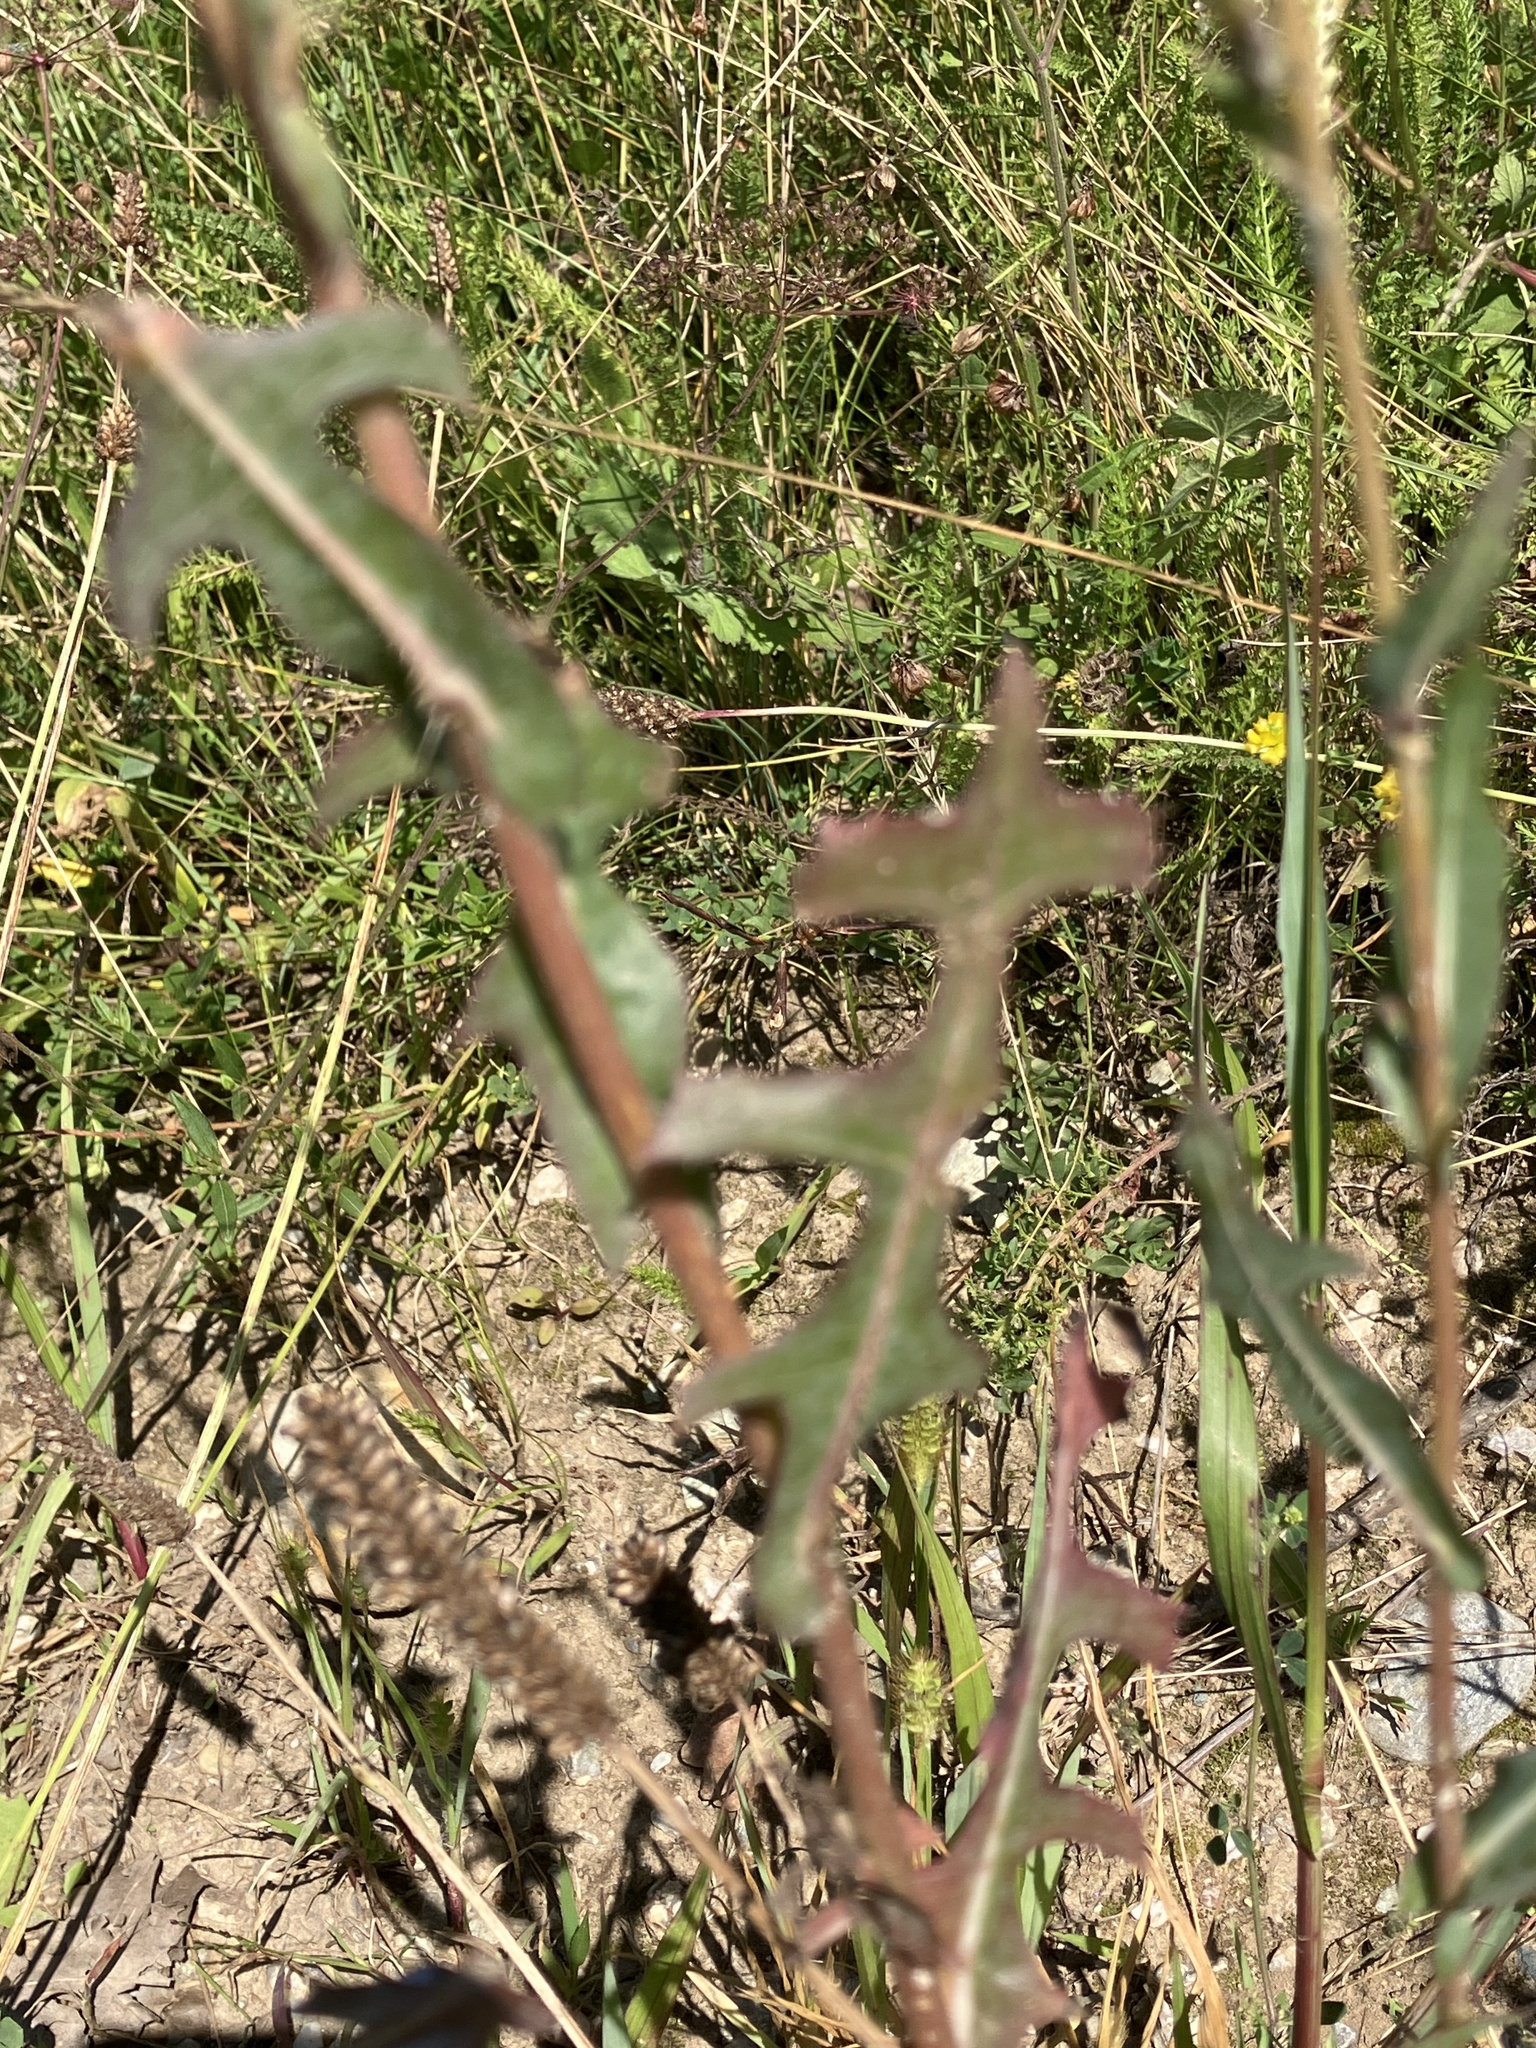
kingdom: Plantae
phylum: Tracheophyta
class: Magnoliopsida
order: Asterales
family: Asteraceae
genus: Lactuca
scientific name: Lactuca serriola
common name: Prickly lettuce
